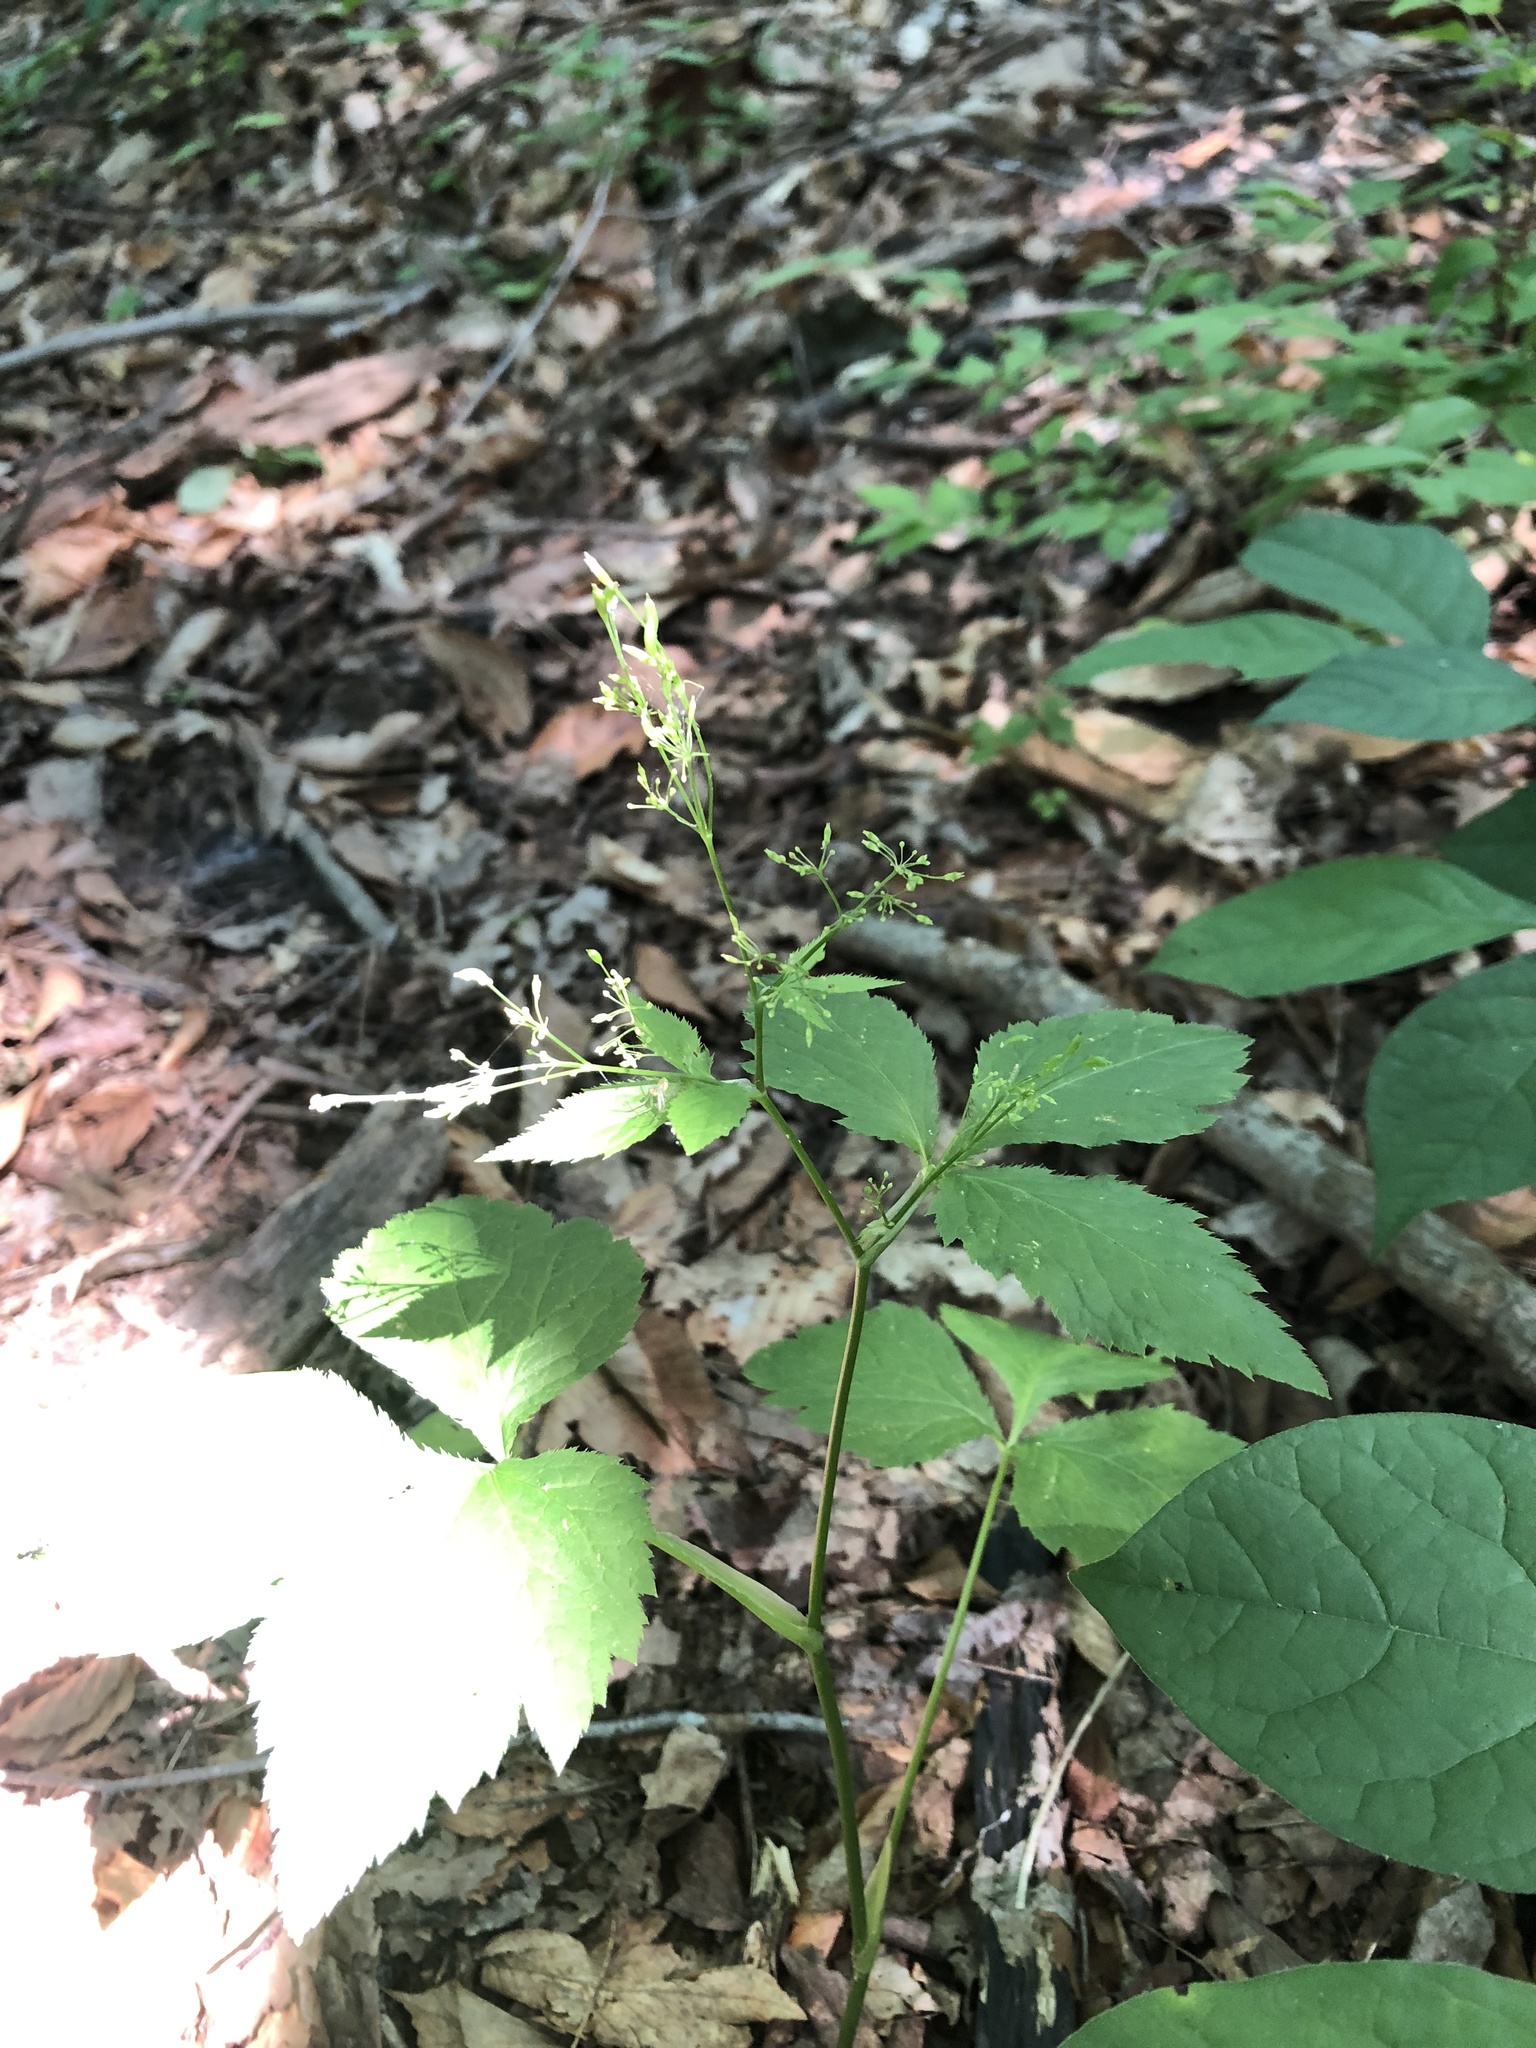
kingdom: Plantae
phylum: Tracheophyta
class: Magnoliopsida
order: Apiales
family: Apiaceae
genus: Cryptotaenia
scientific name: Cryptotaenia canadensis
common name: Honewort
